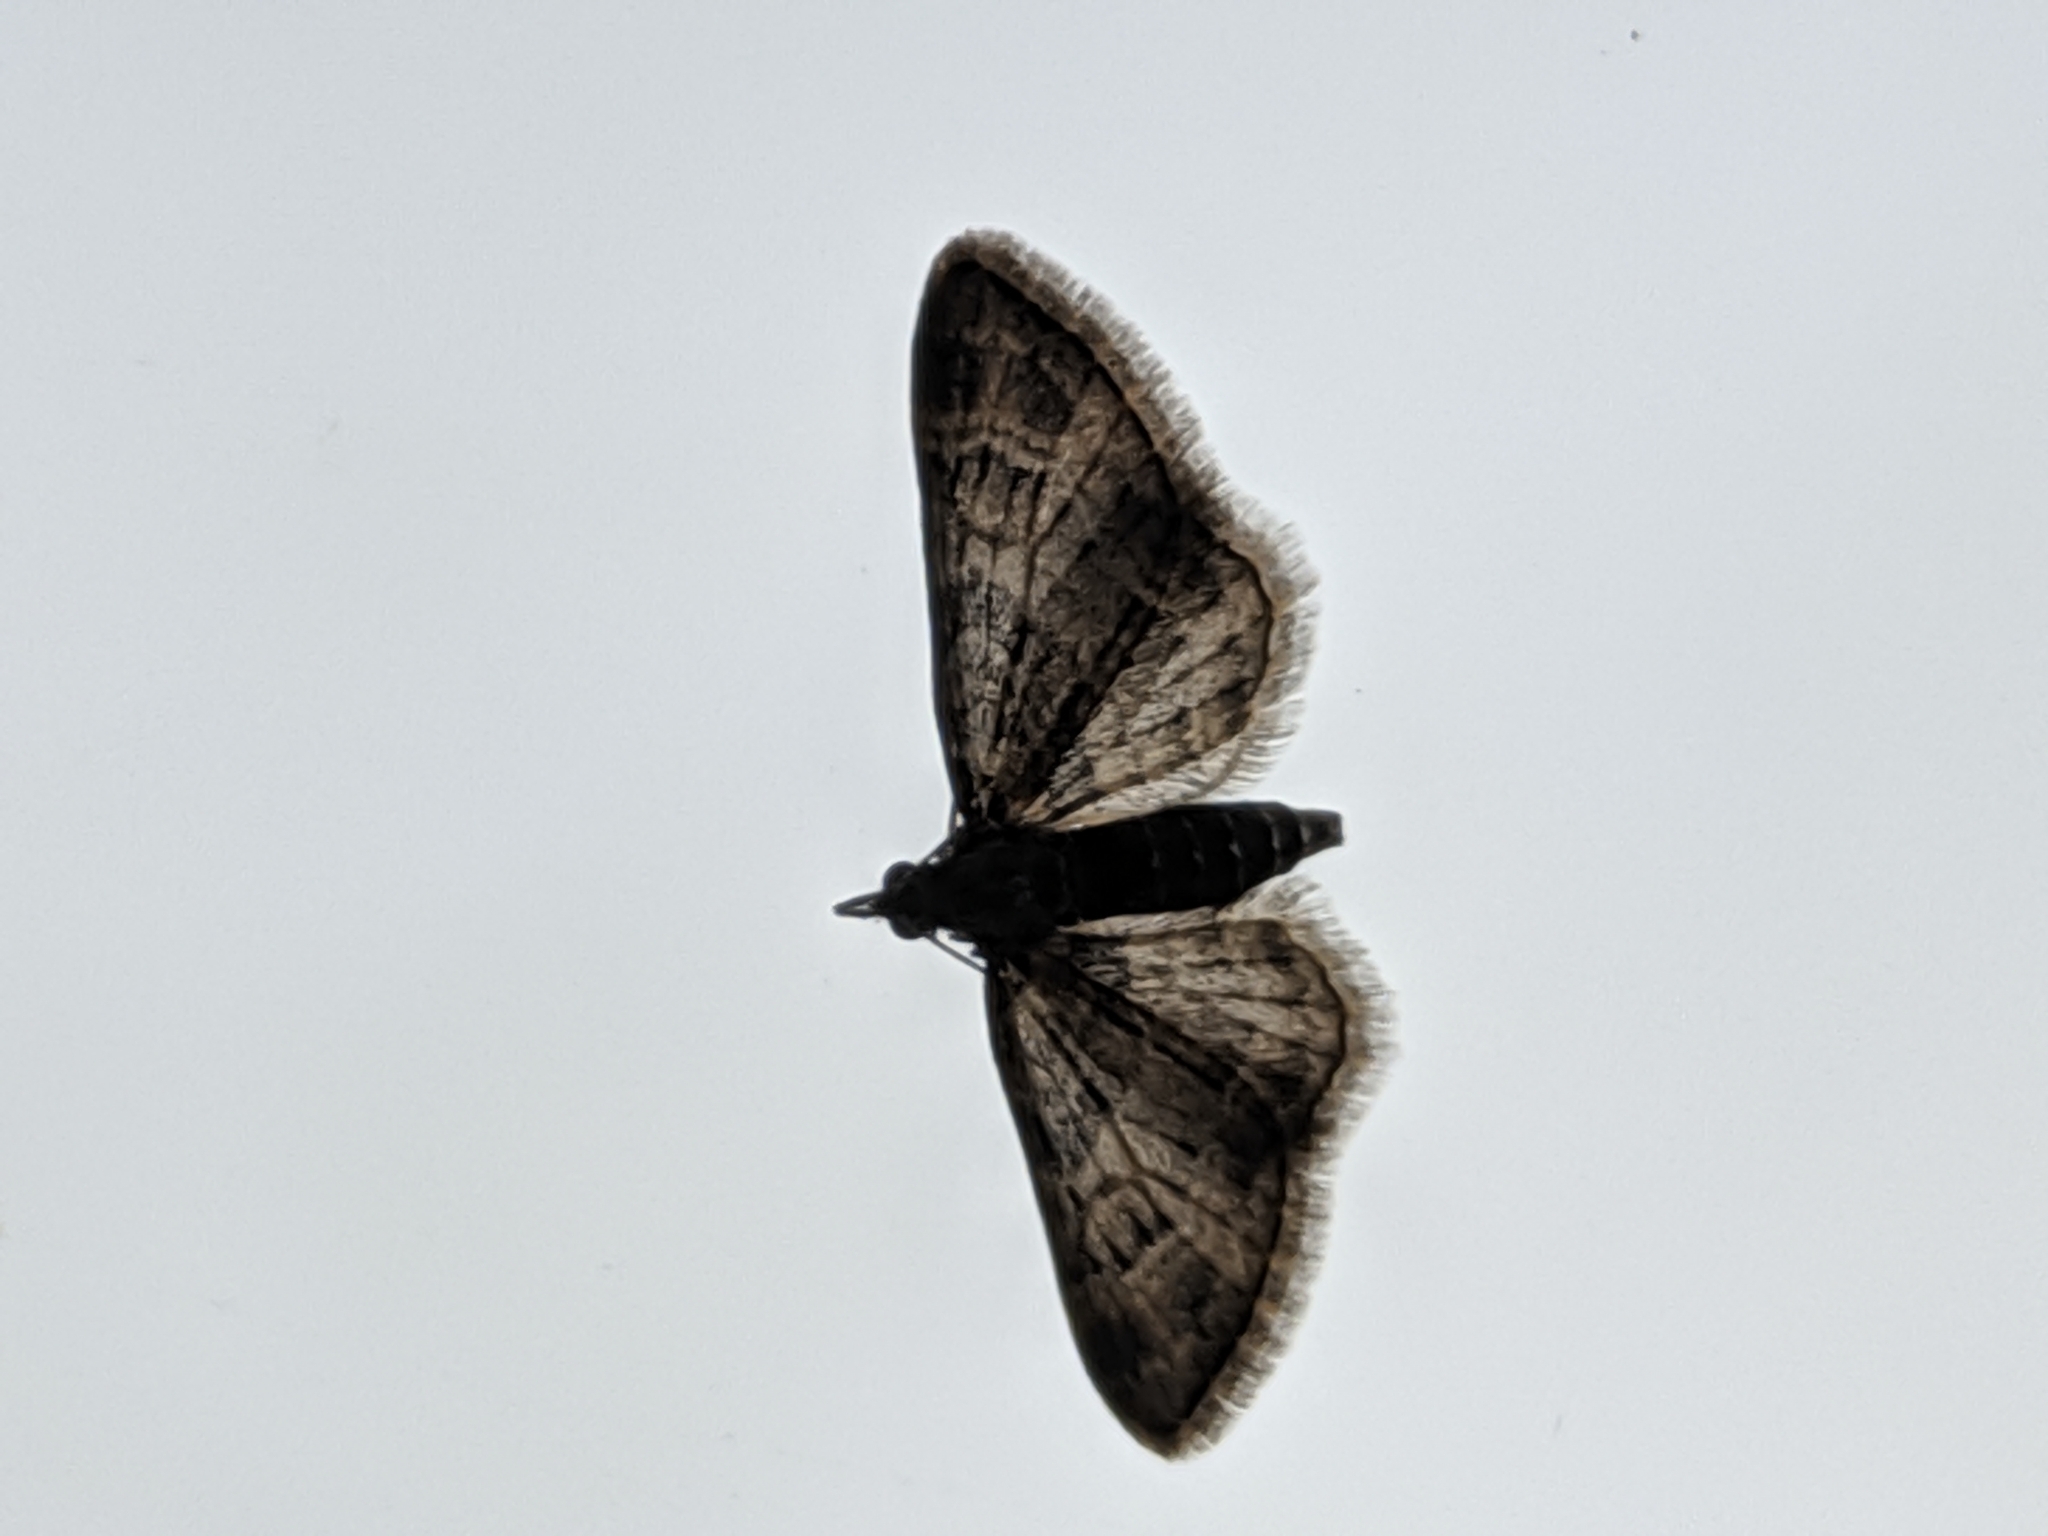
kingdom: Animalia
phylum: Arthropoda
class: Insecta
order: Lepidoptera
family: Geometridae
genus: Gymnoscelis
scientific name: Gymnoscelis rufifasciata
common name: Double-striped pug
